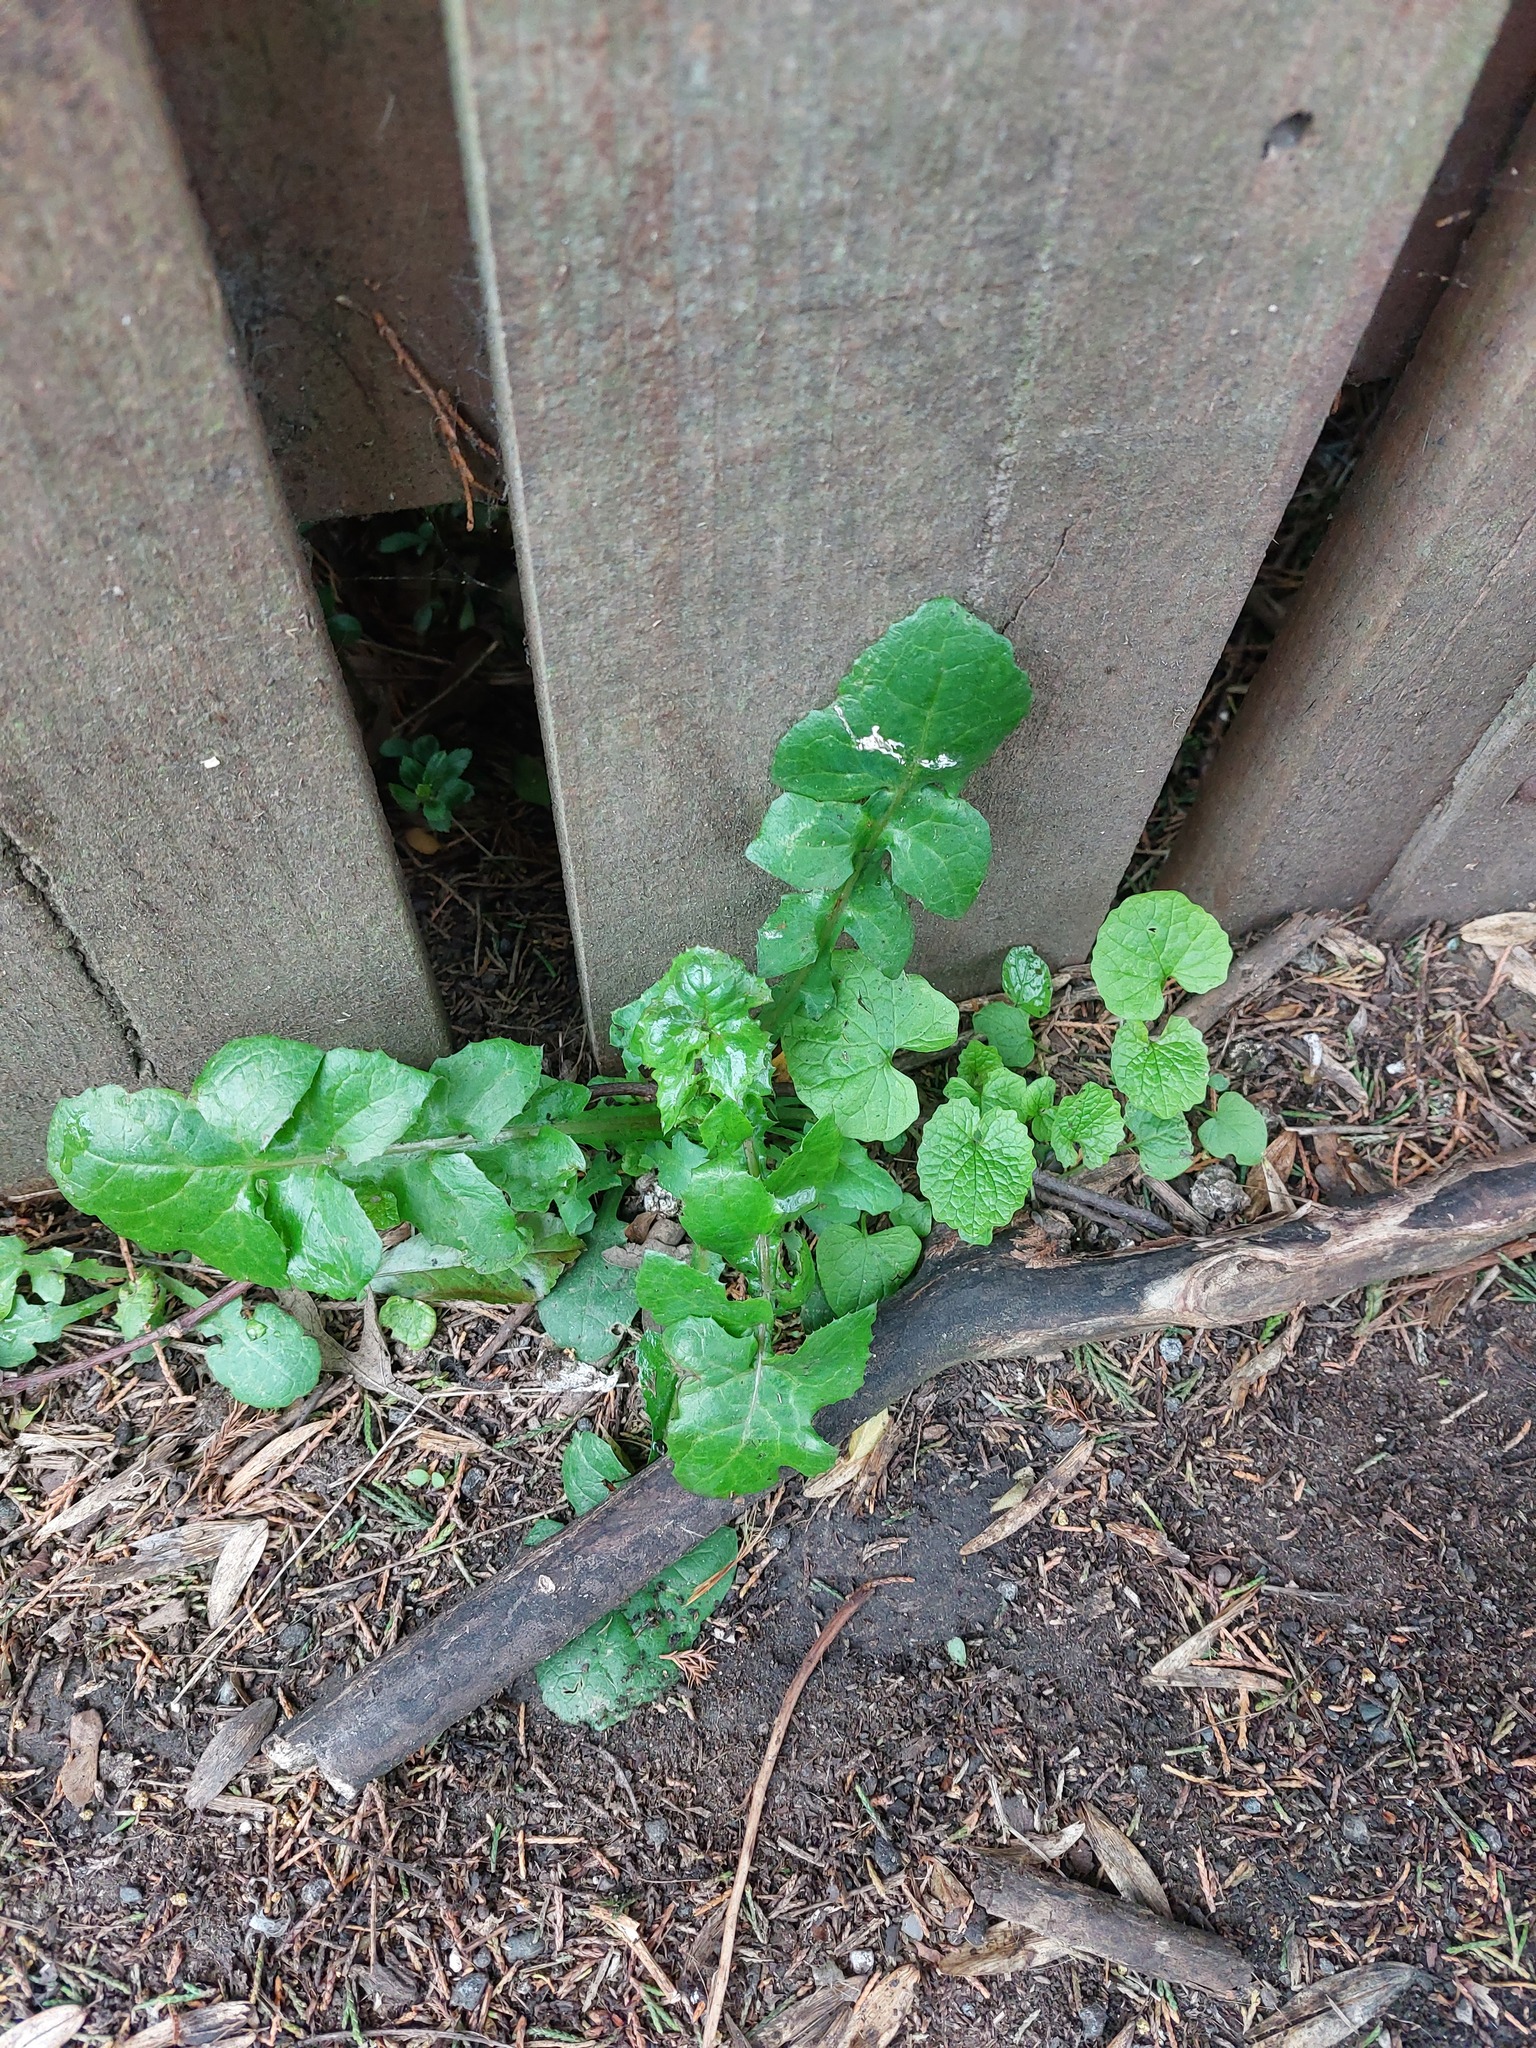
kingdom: Plantae
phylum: Tracheophyta
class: Magnoliopsida
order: Asterales
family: Asteraceae
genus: Sonchus
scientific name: Sonchus oleraceus
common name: Common sowthistle
